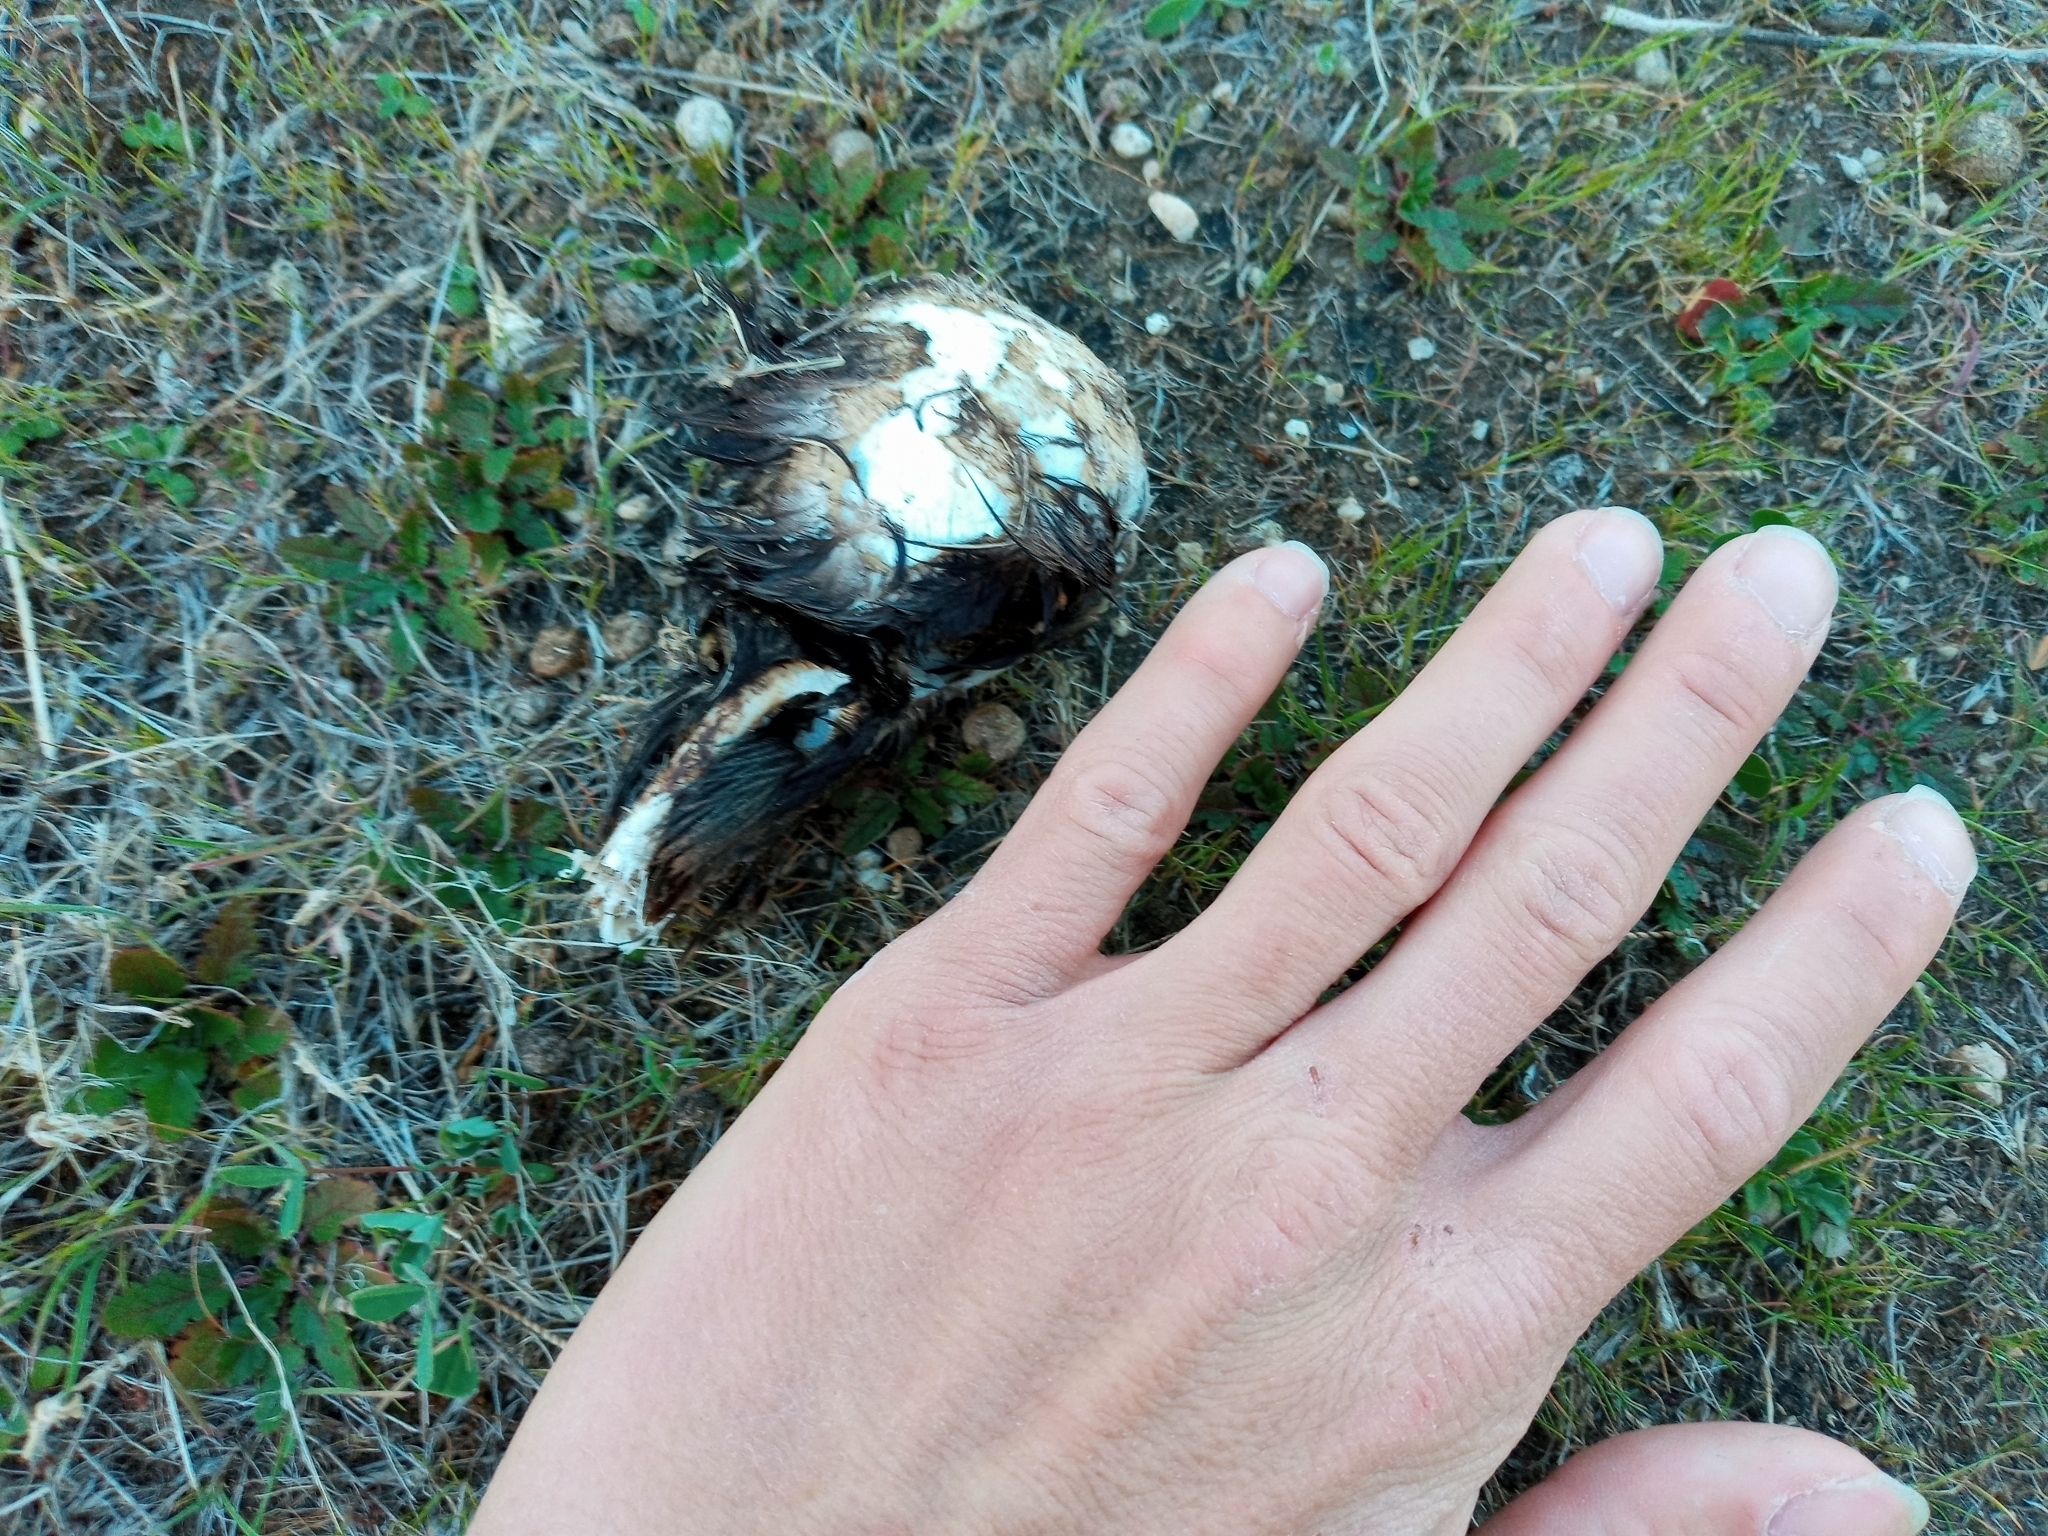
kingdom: Animalia
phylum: Chordata
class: Aves
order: Passeriformes
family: Corvidae
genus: Corvus
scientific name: Corvus brachyrhynchos
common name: American crow
